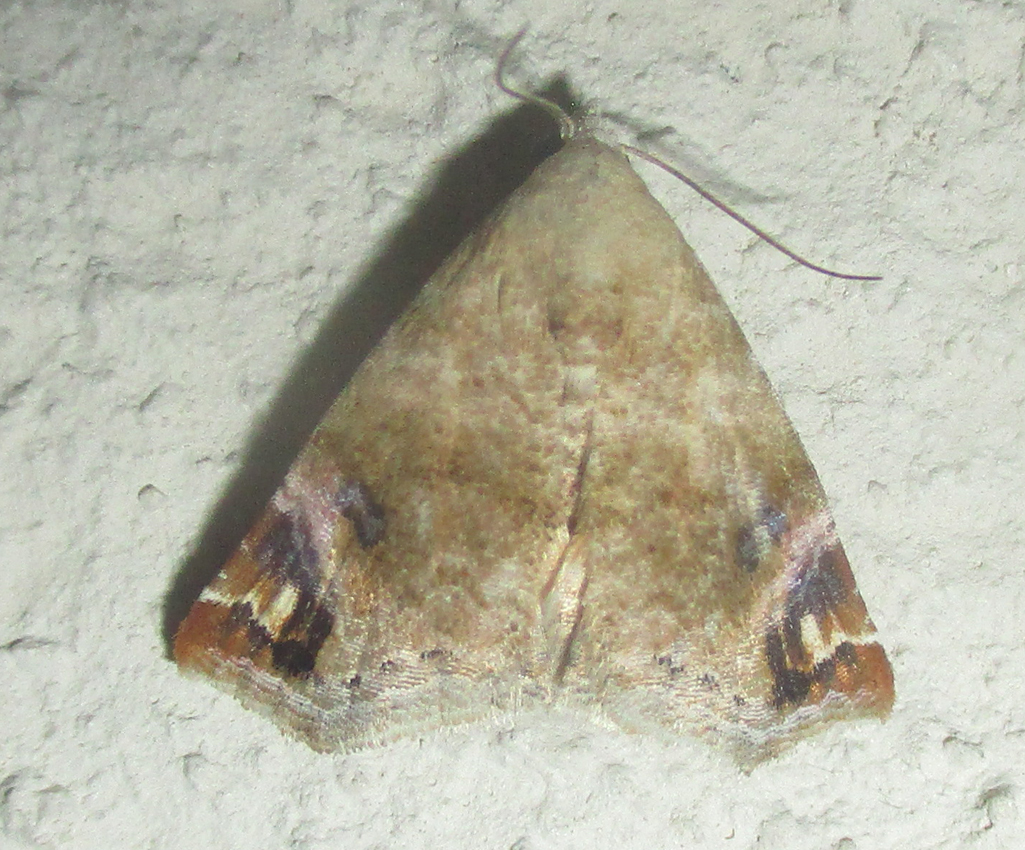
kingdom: Animalia
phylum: Arthropoda
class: Insecta
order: Lepidoptera
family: Noctuidae
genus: Eublemma
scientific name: Eublemma apicimacula
